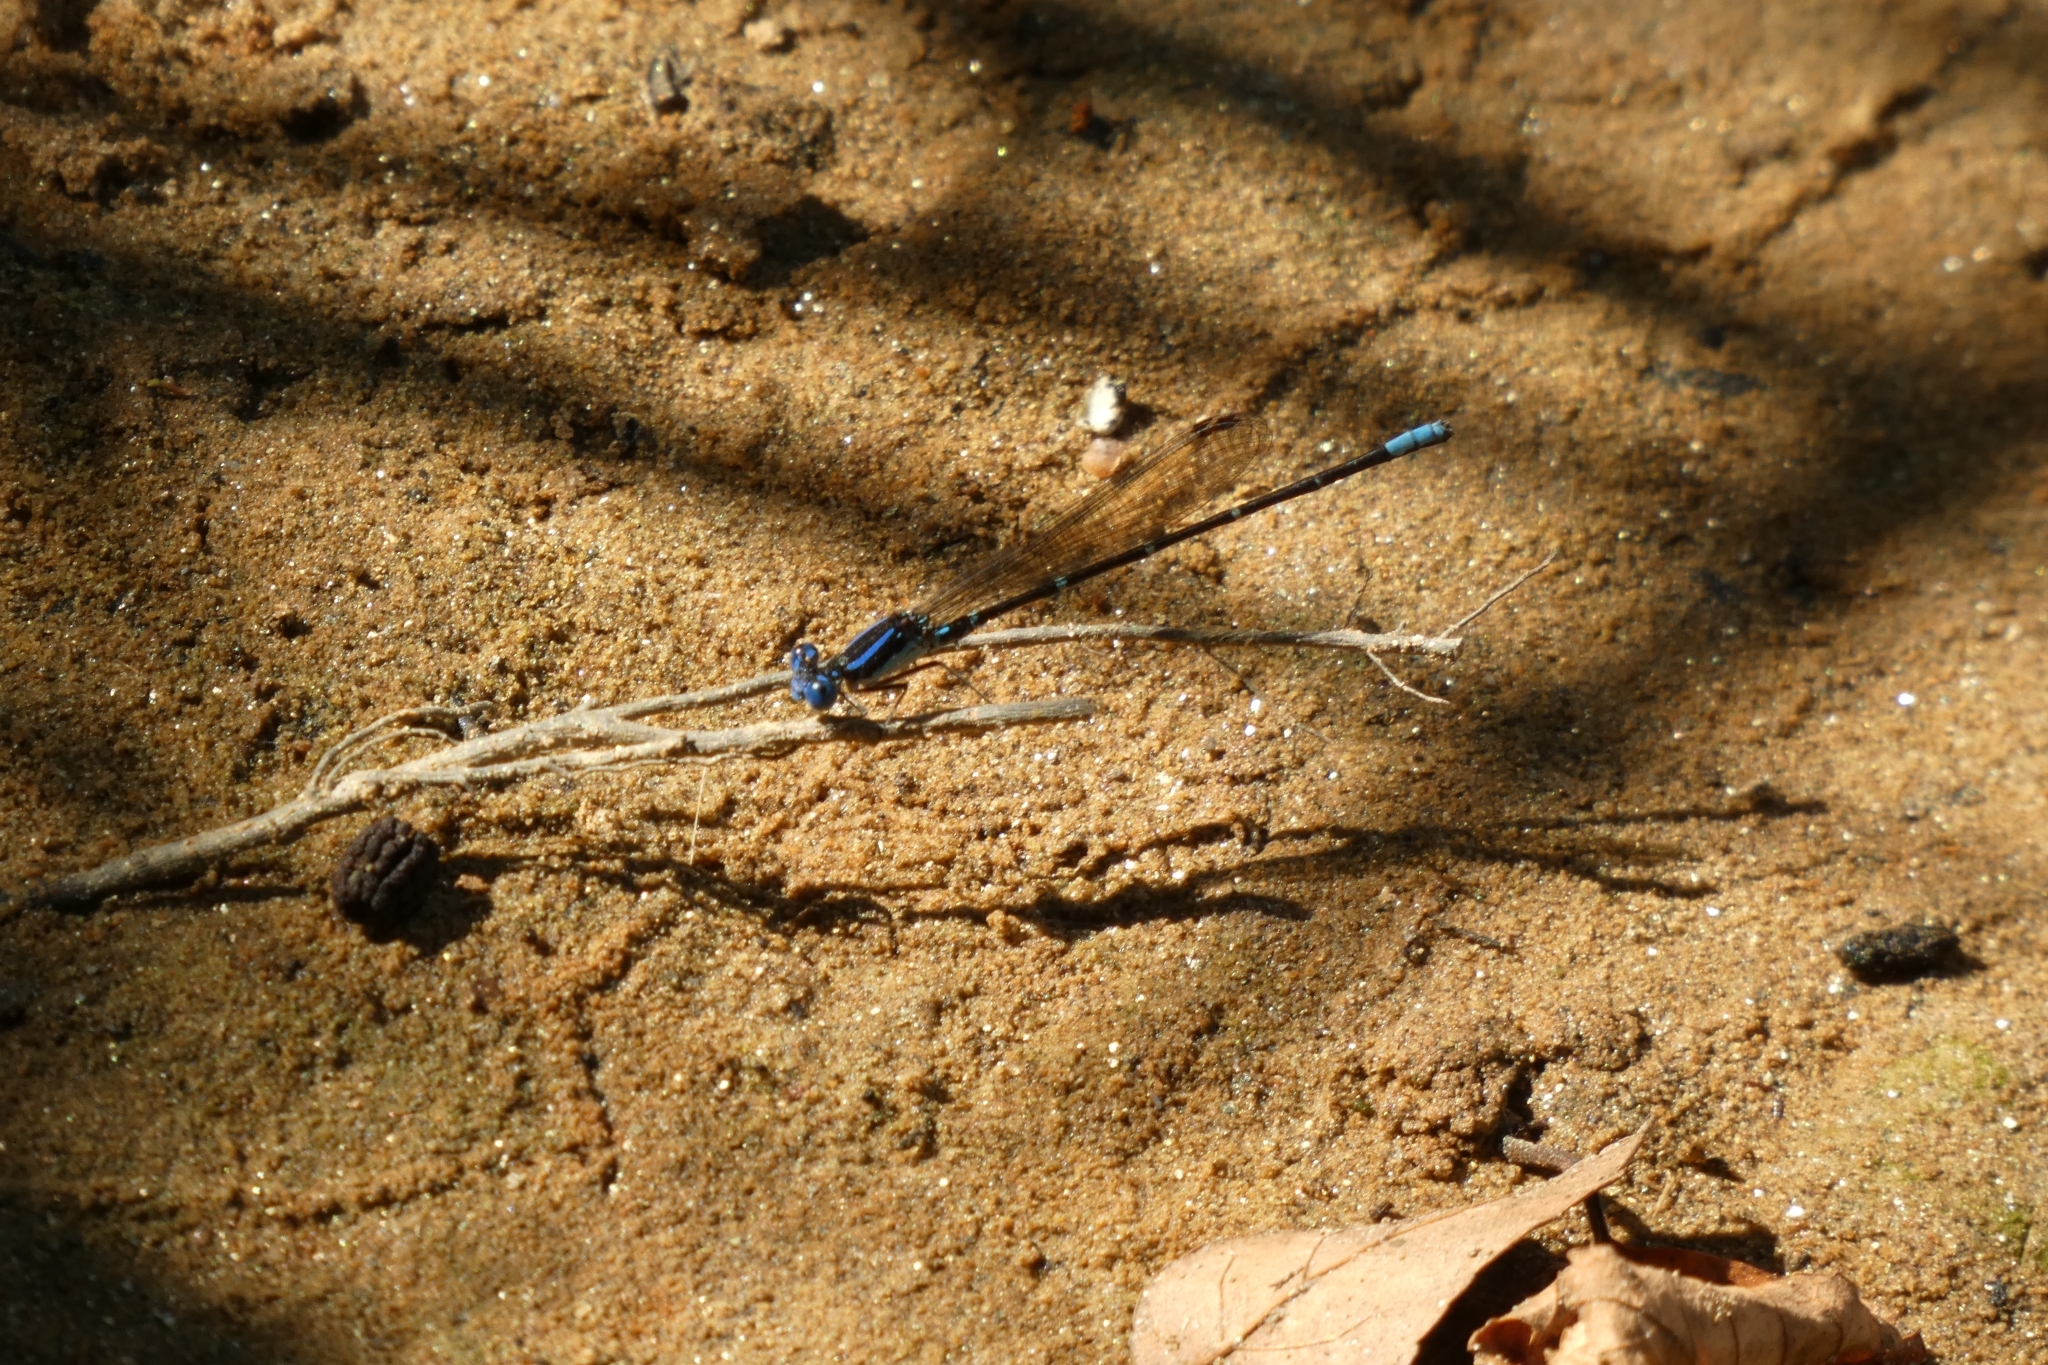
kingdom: Animalia
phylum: Arthropoda
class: Insecta
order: Odonata
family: Coenagrionidae
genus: Argia
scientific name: Argia sedula
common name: Blue-ringed dancer
